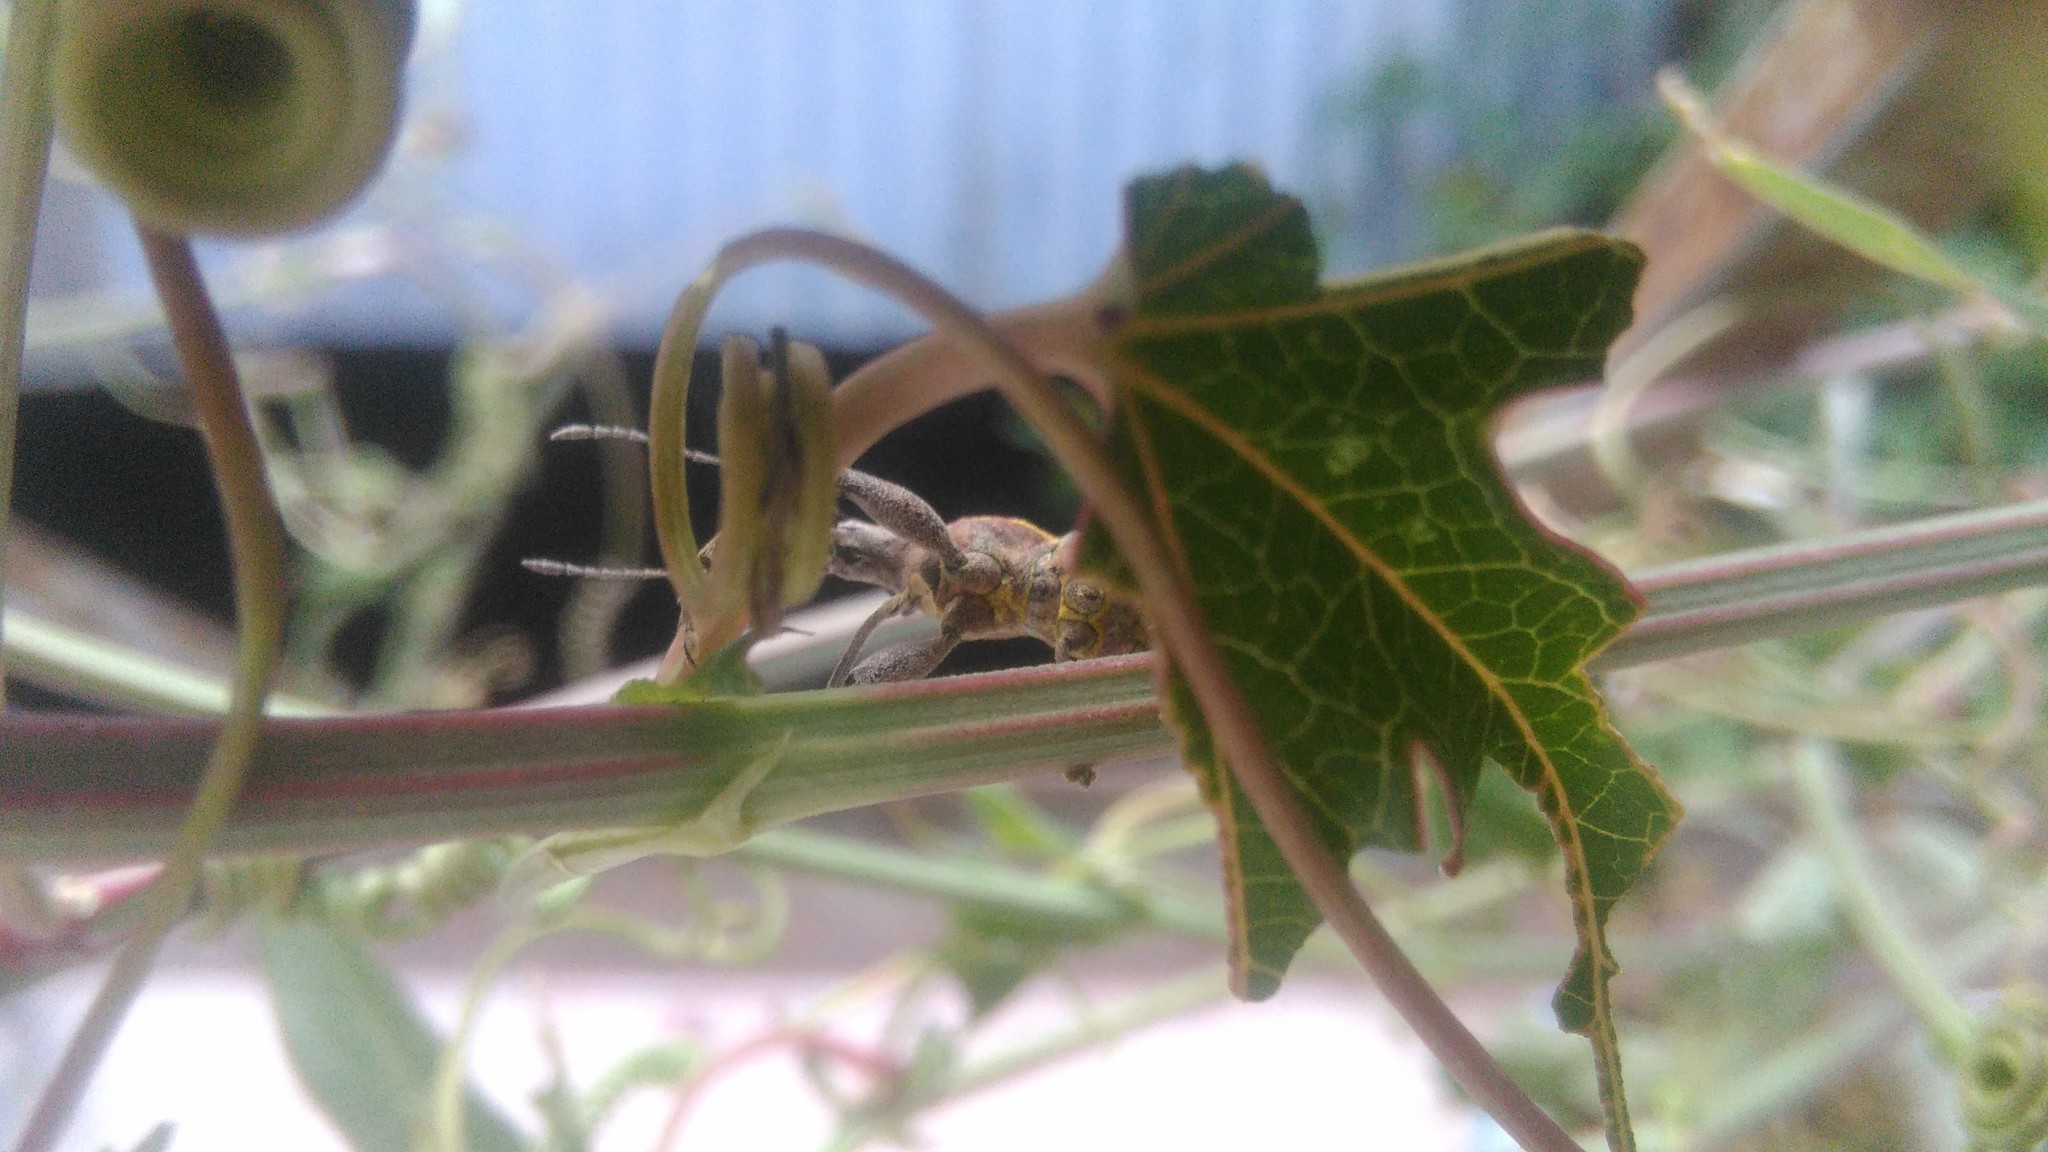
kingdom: Animalia
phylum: Arthropoda
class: Insecta
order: Coleoptera
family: Curculionidae
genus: Naupactus
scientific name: Naupactus xanthographus
